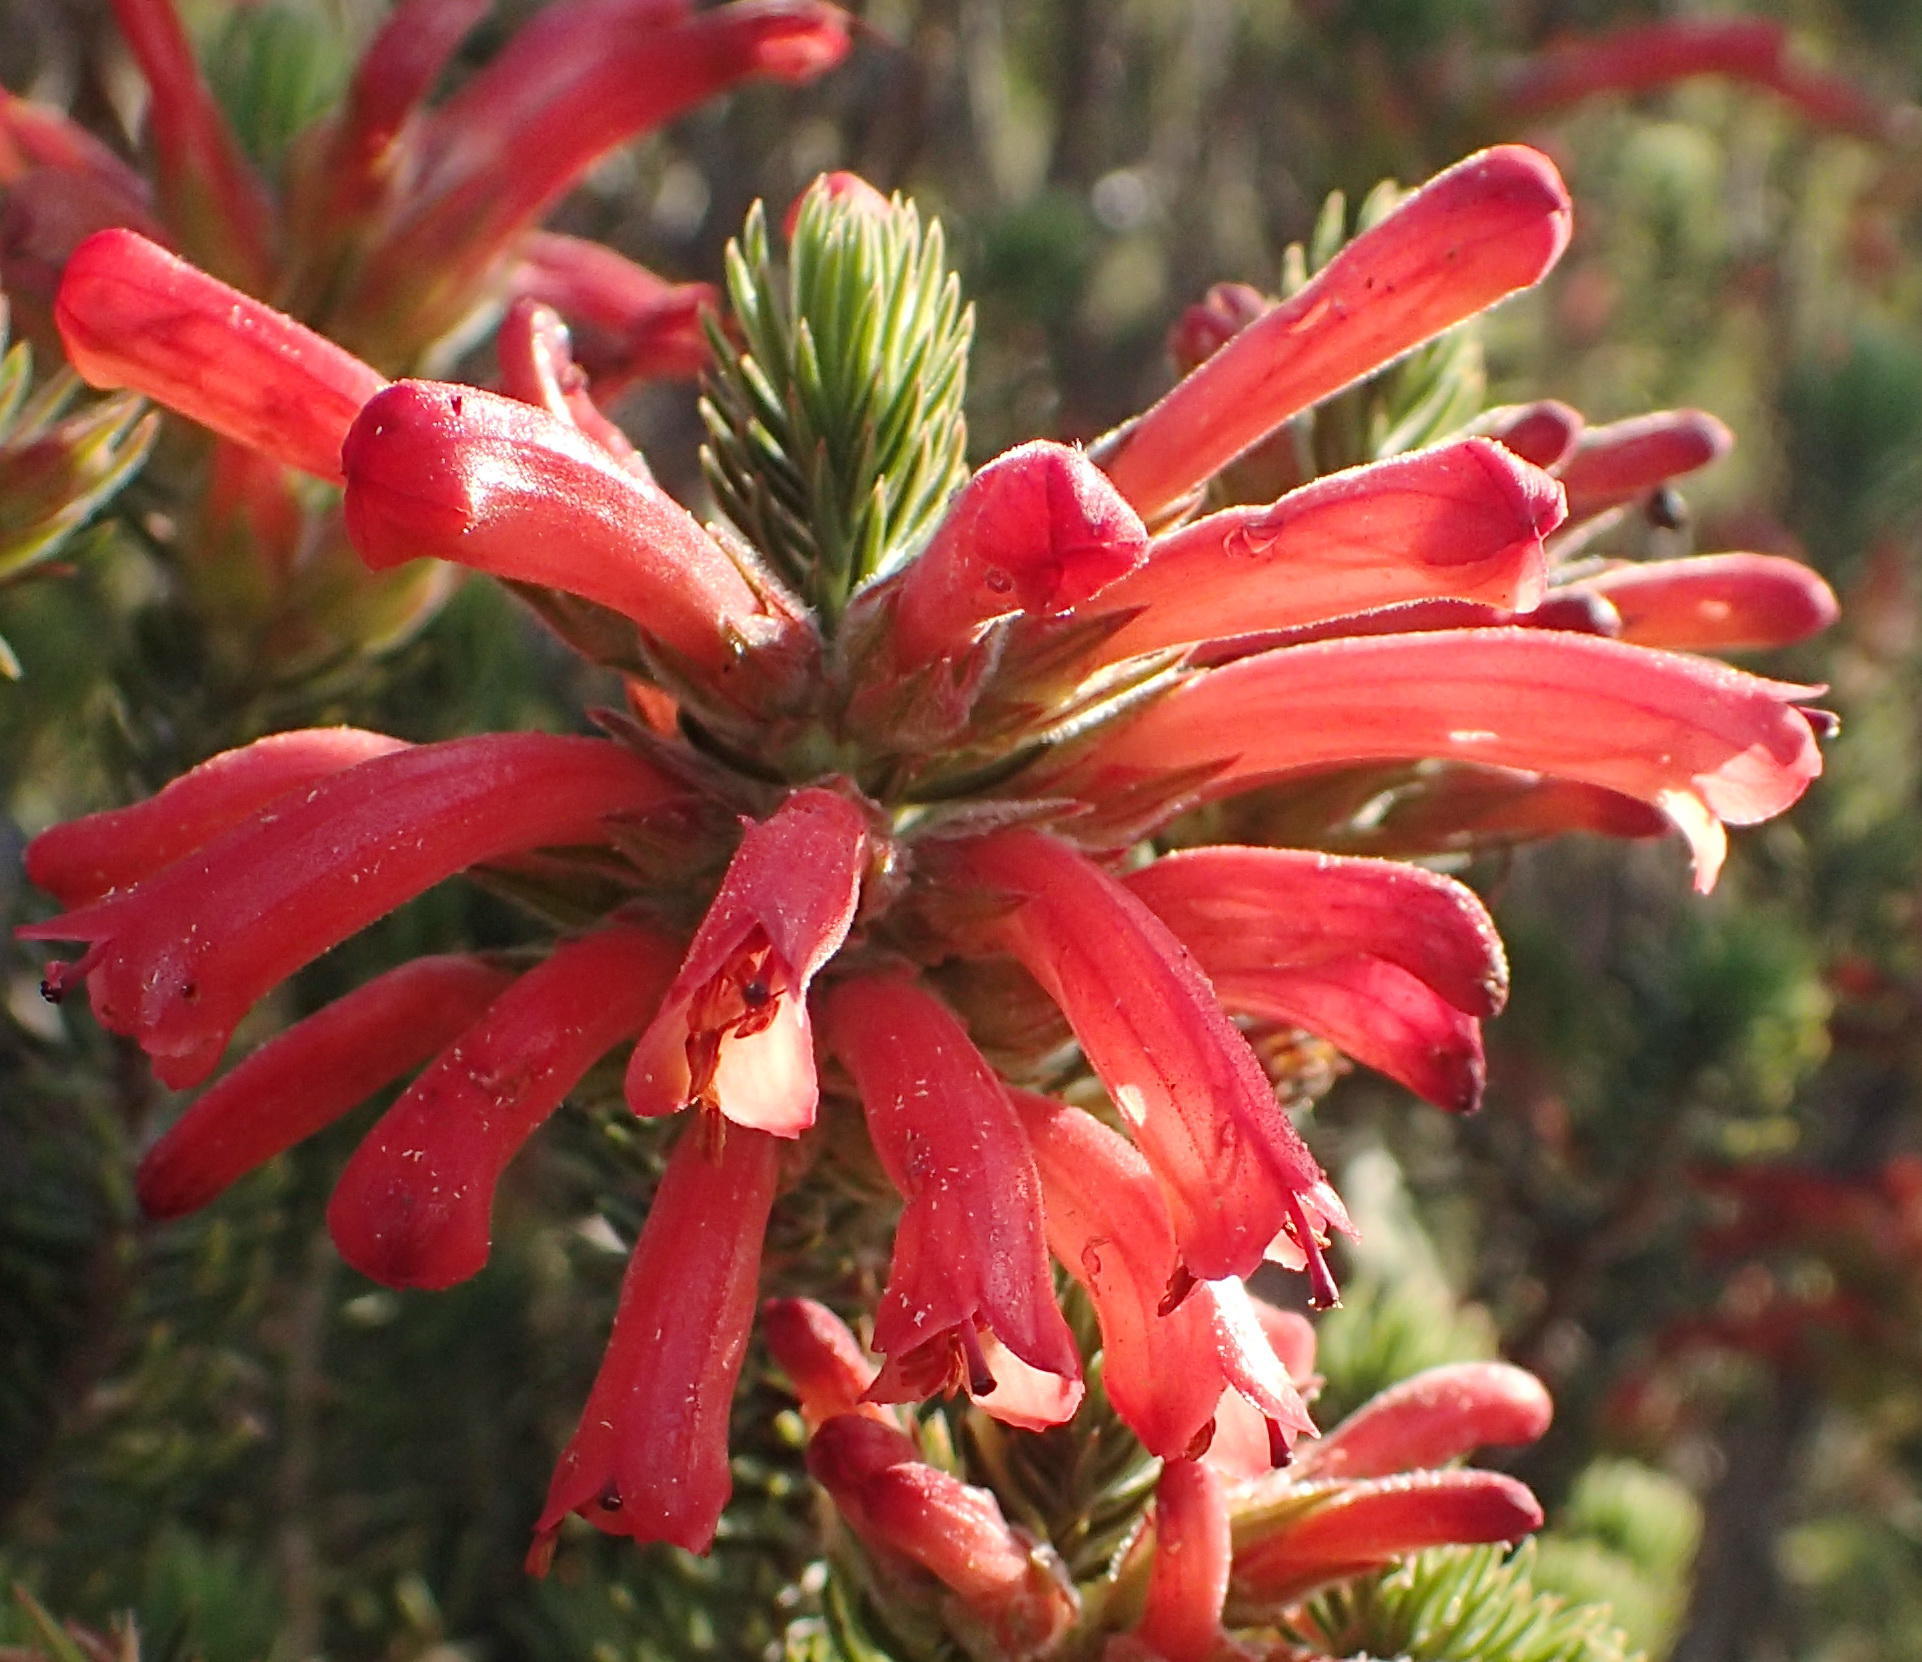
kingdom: Plantae
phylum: Tracheophyta
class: Magnoliopsida
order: Ericales
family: Ericaceae
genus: Erica
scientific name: Erica abietina
